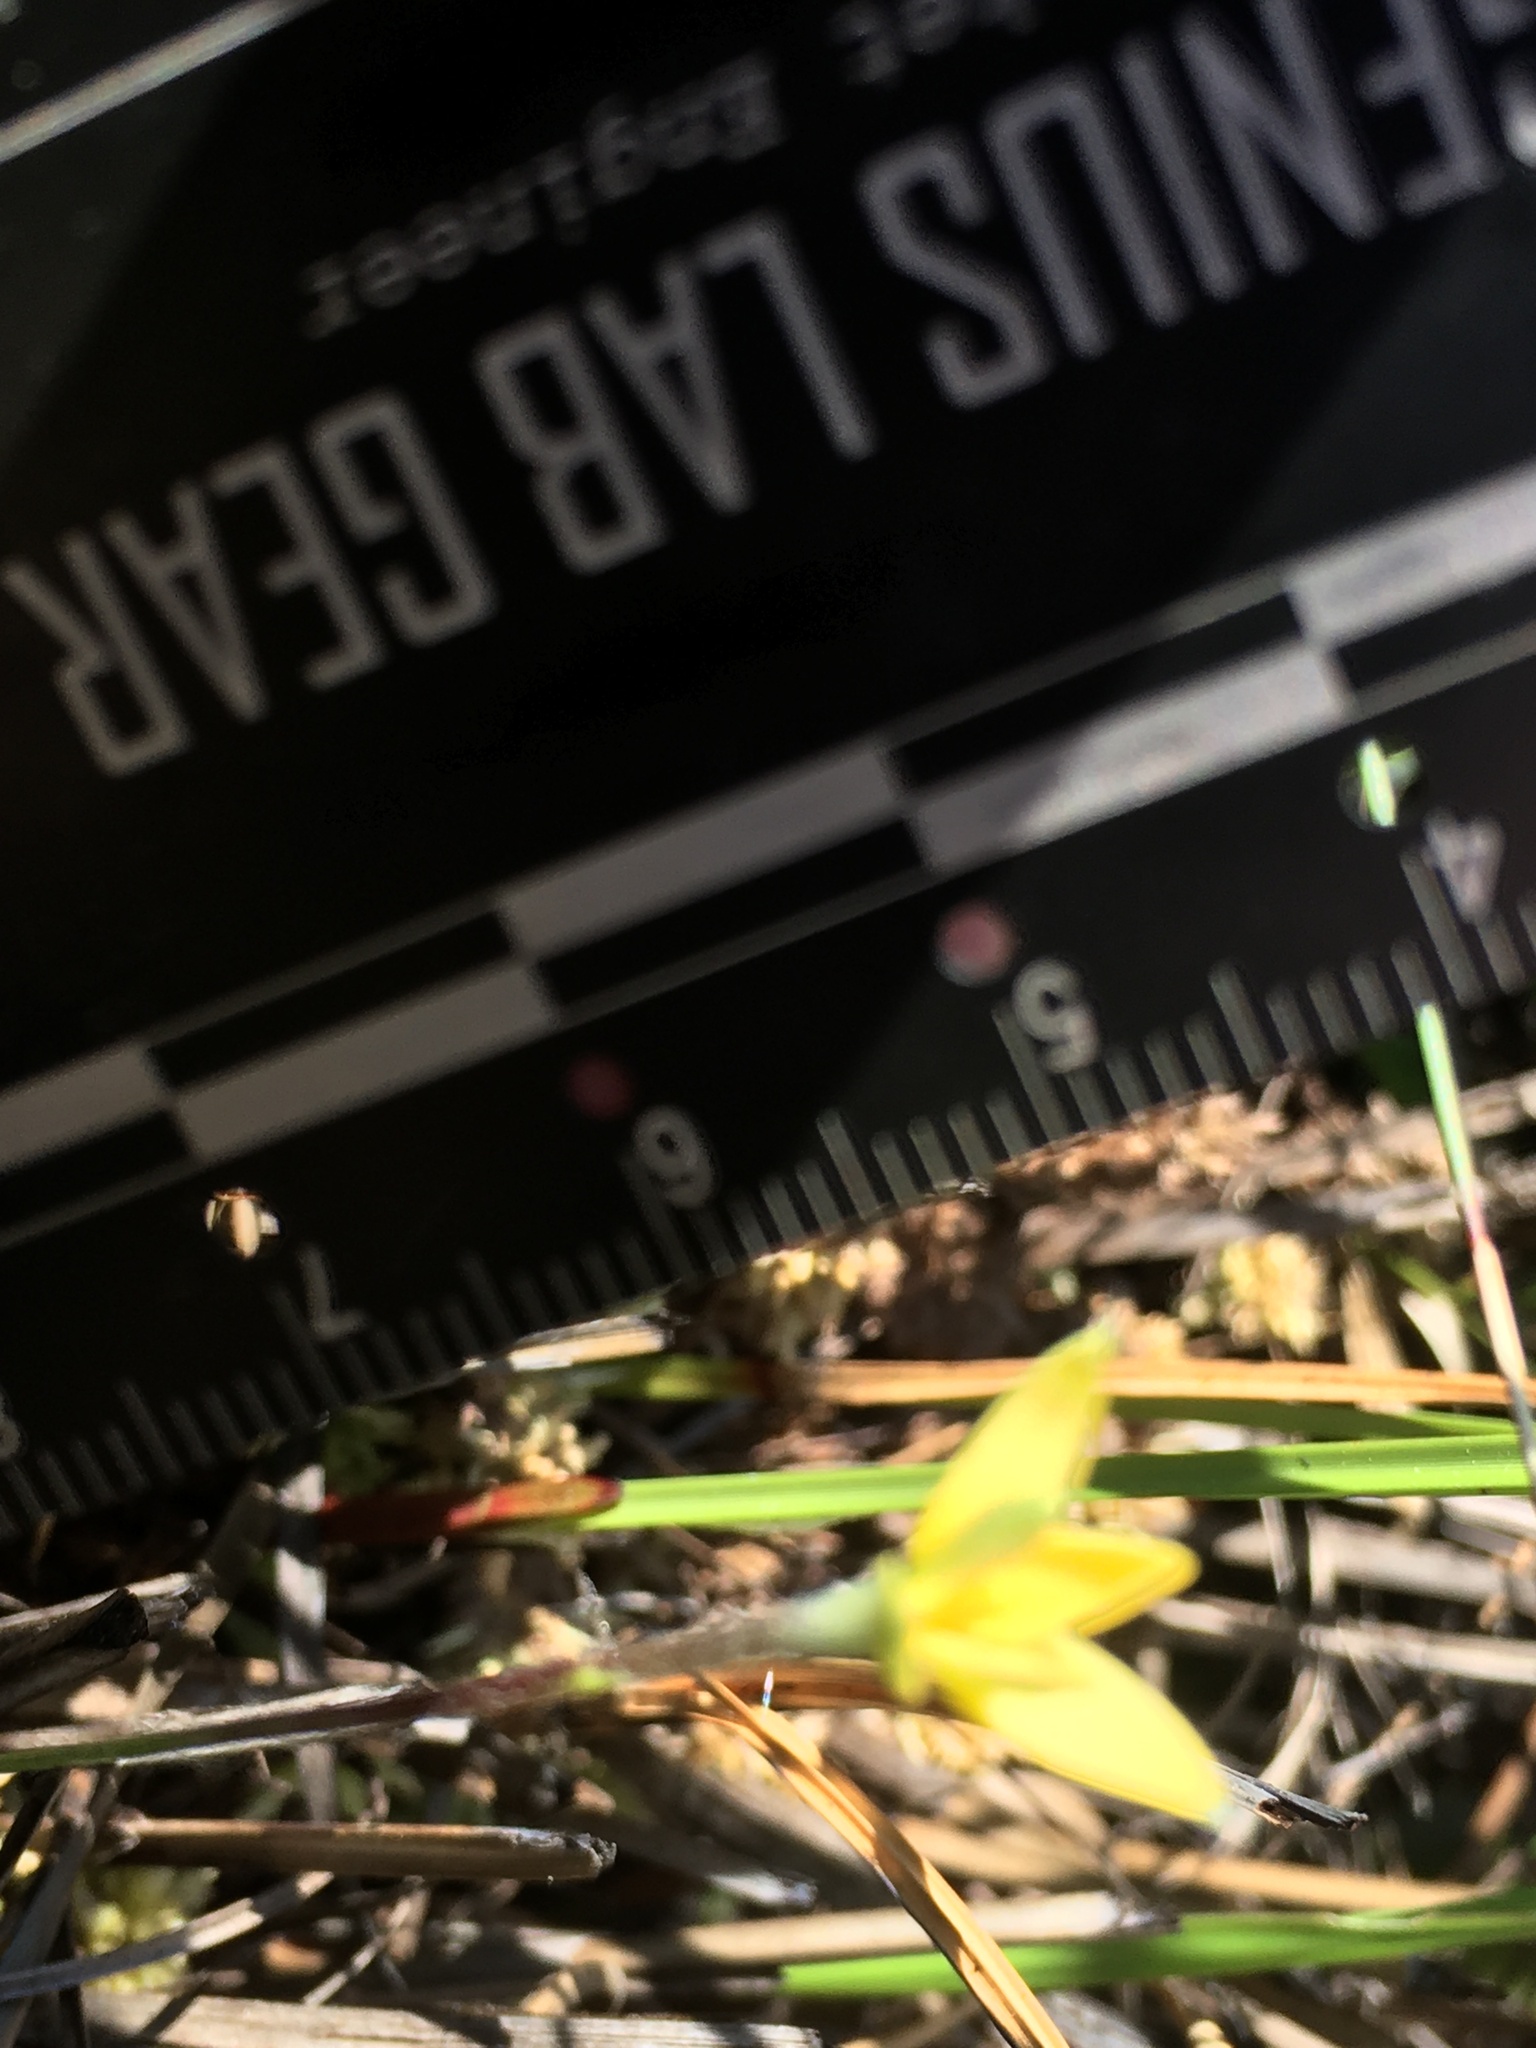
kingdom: Plantae
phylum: Tracheophyta
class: Liliopsida
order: Asparagales
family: Hypoxidaceae
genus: Hypoxis
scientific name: Hypoxis juncea
